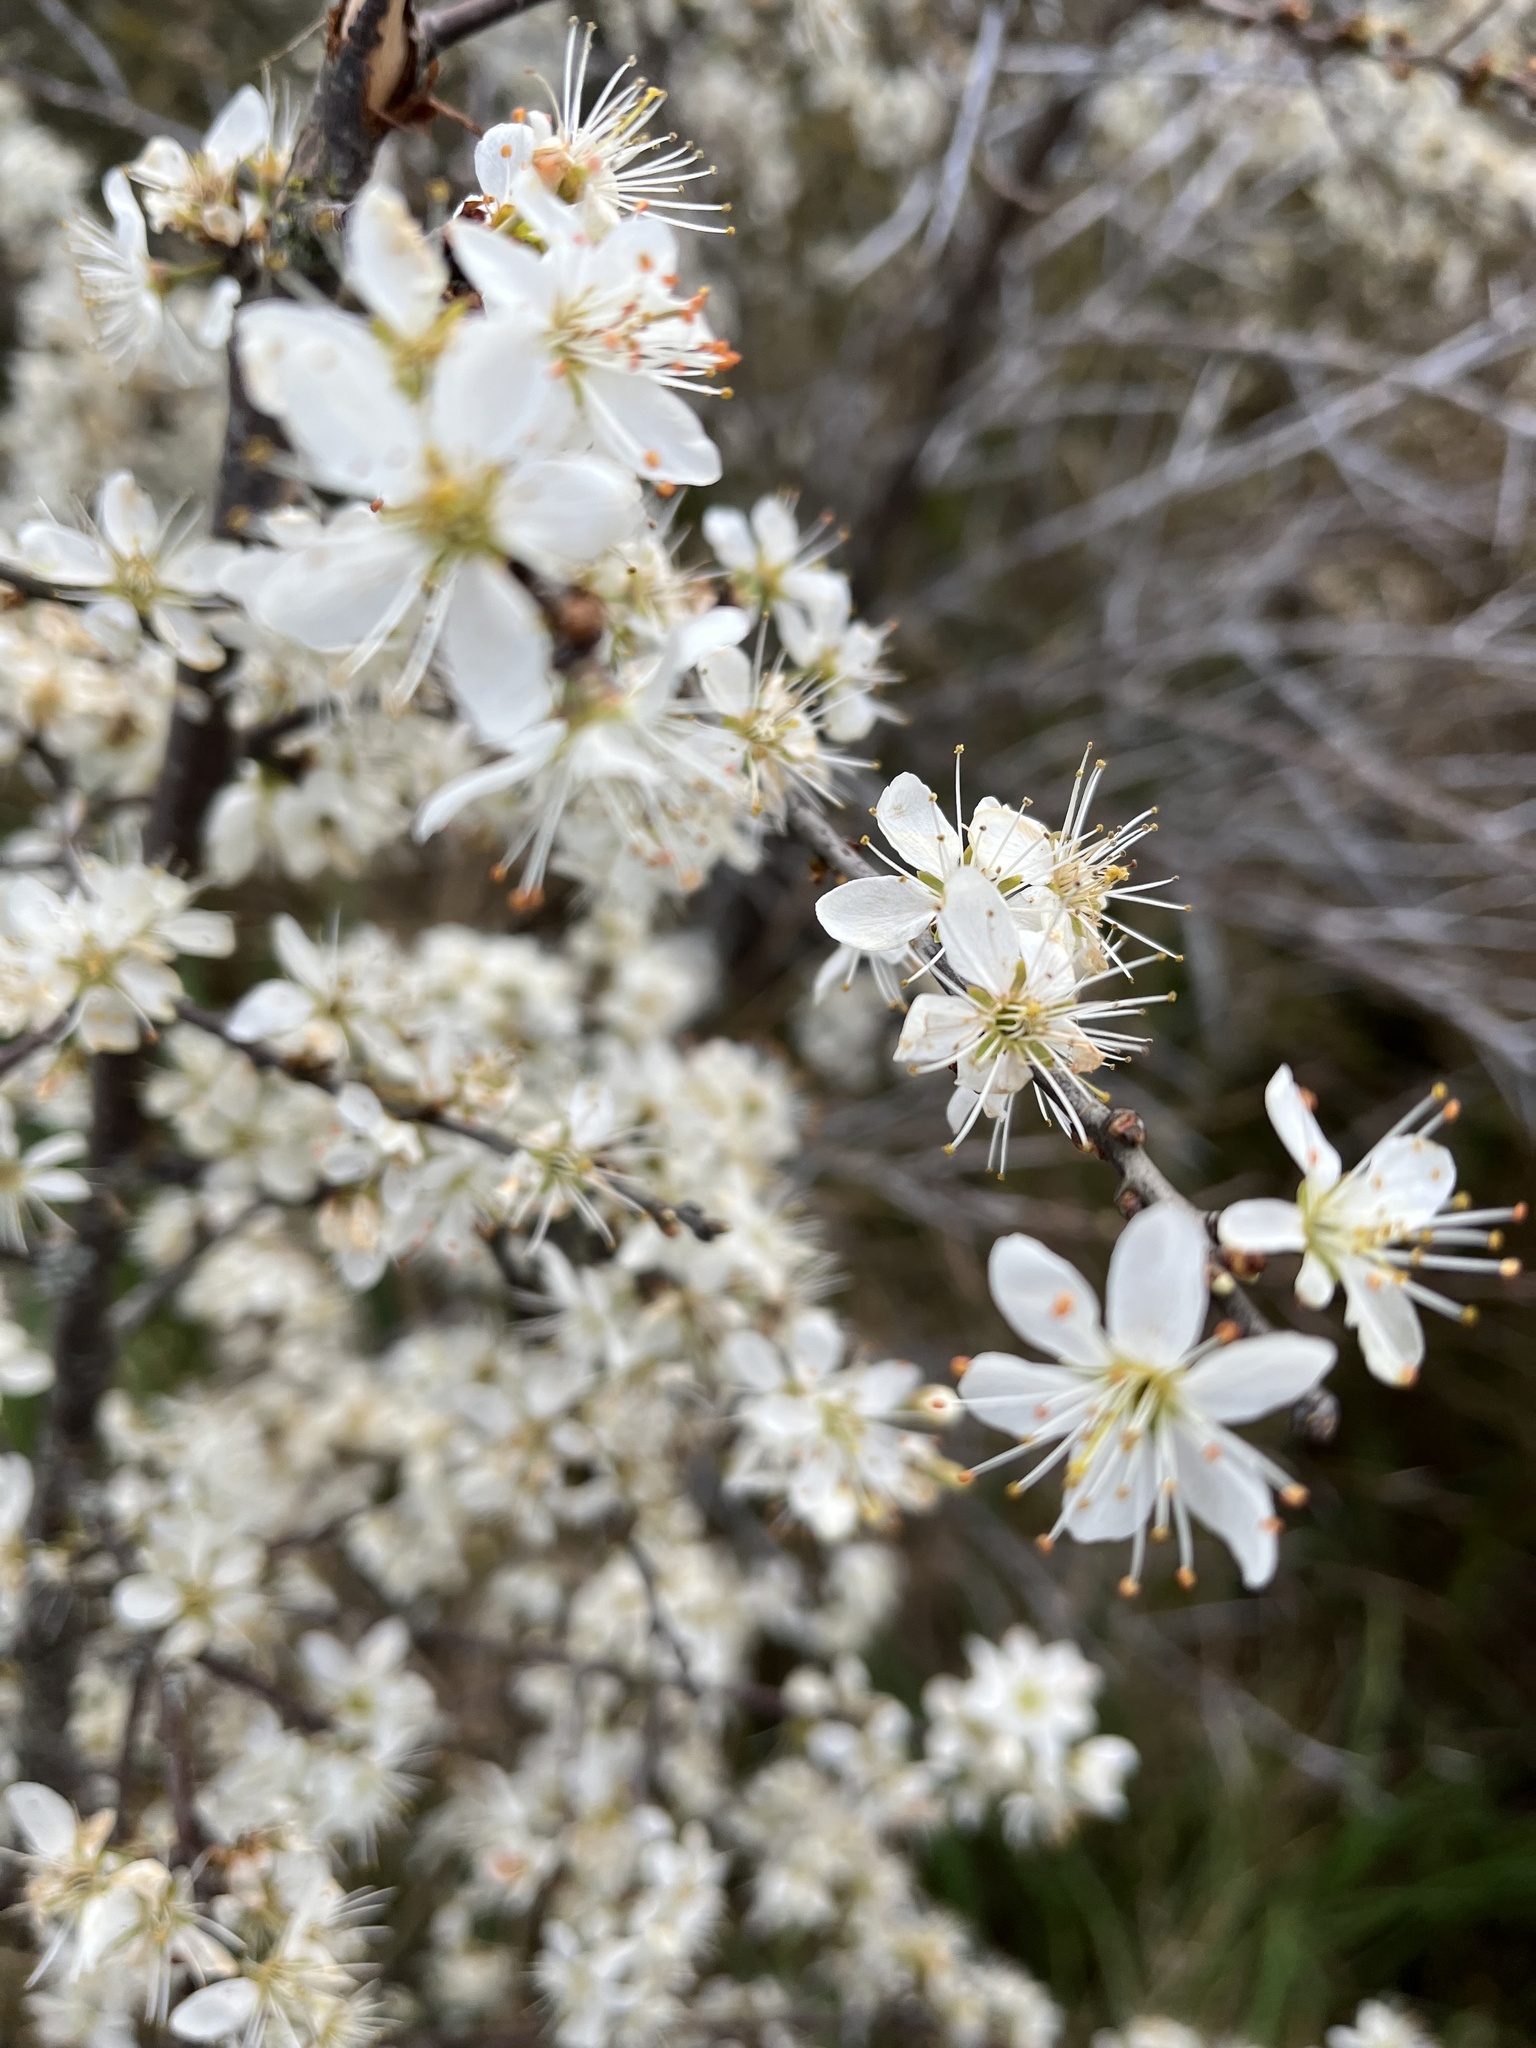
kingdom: Plantae
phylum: Tracheophyta
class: Magnoliopsida
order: Rosales
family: Rosaceae
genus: Prunus
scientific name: Prunus spinosa
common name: Blackthorn
